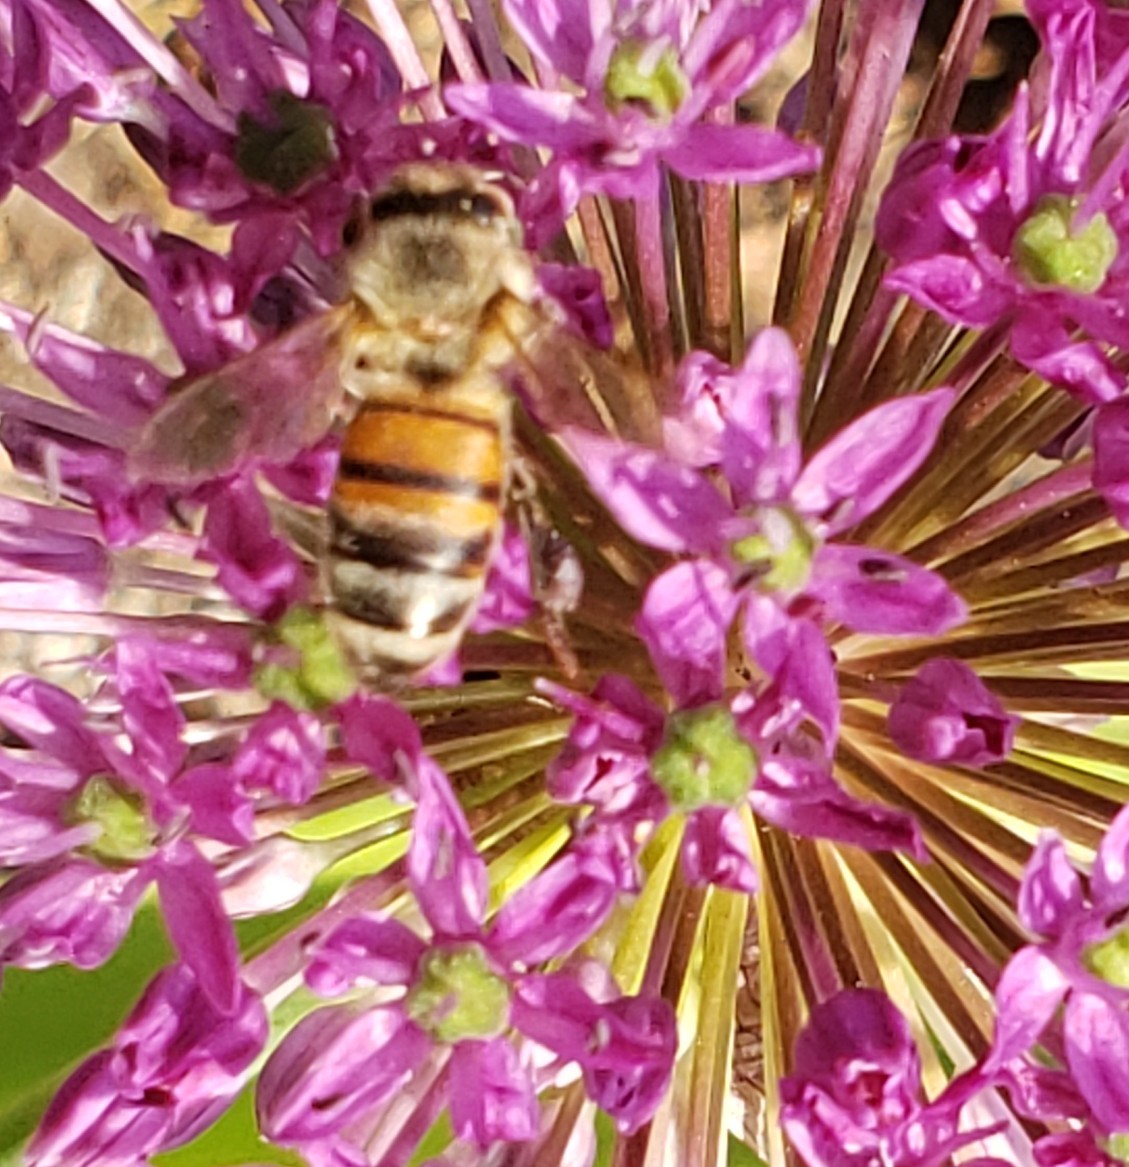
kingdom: Animalia
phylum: Arthropoda
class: Insecta
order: Hymenoptera
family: Apidae
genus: Apis
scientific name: Apis mellifera
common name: Honey bee
